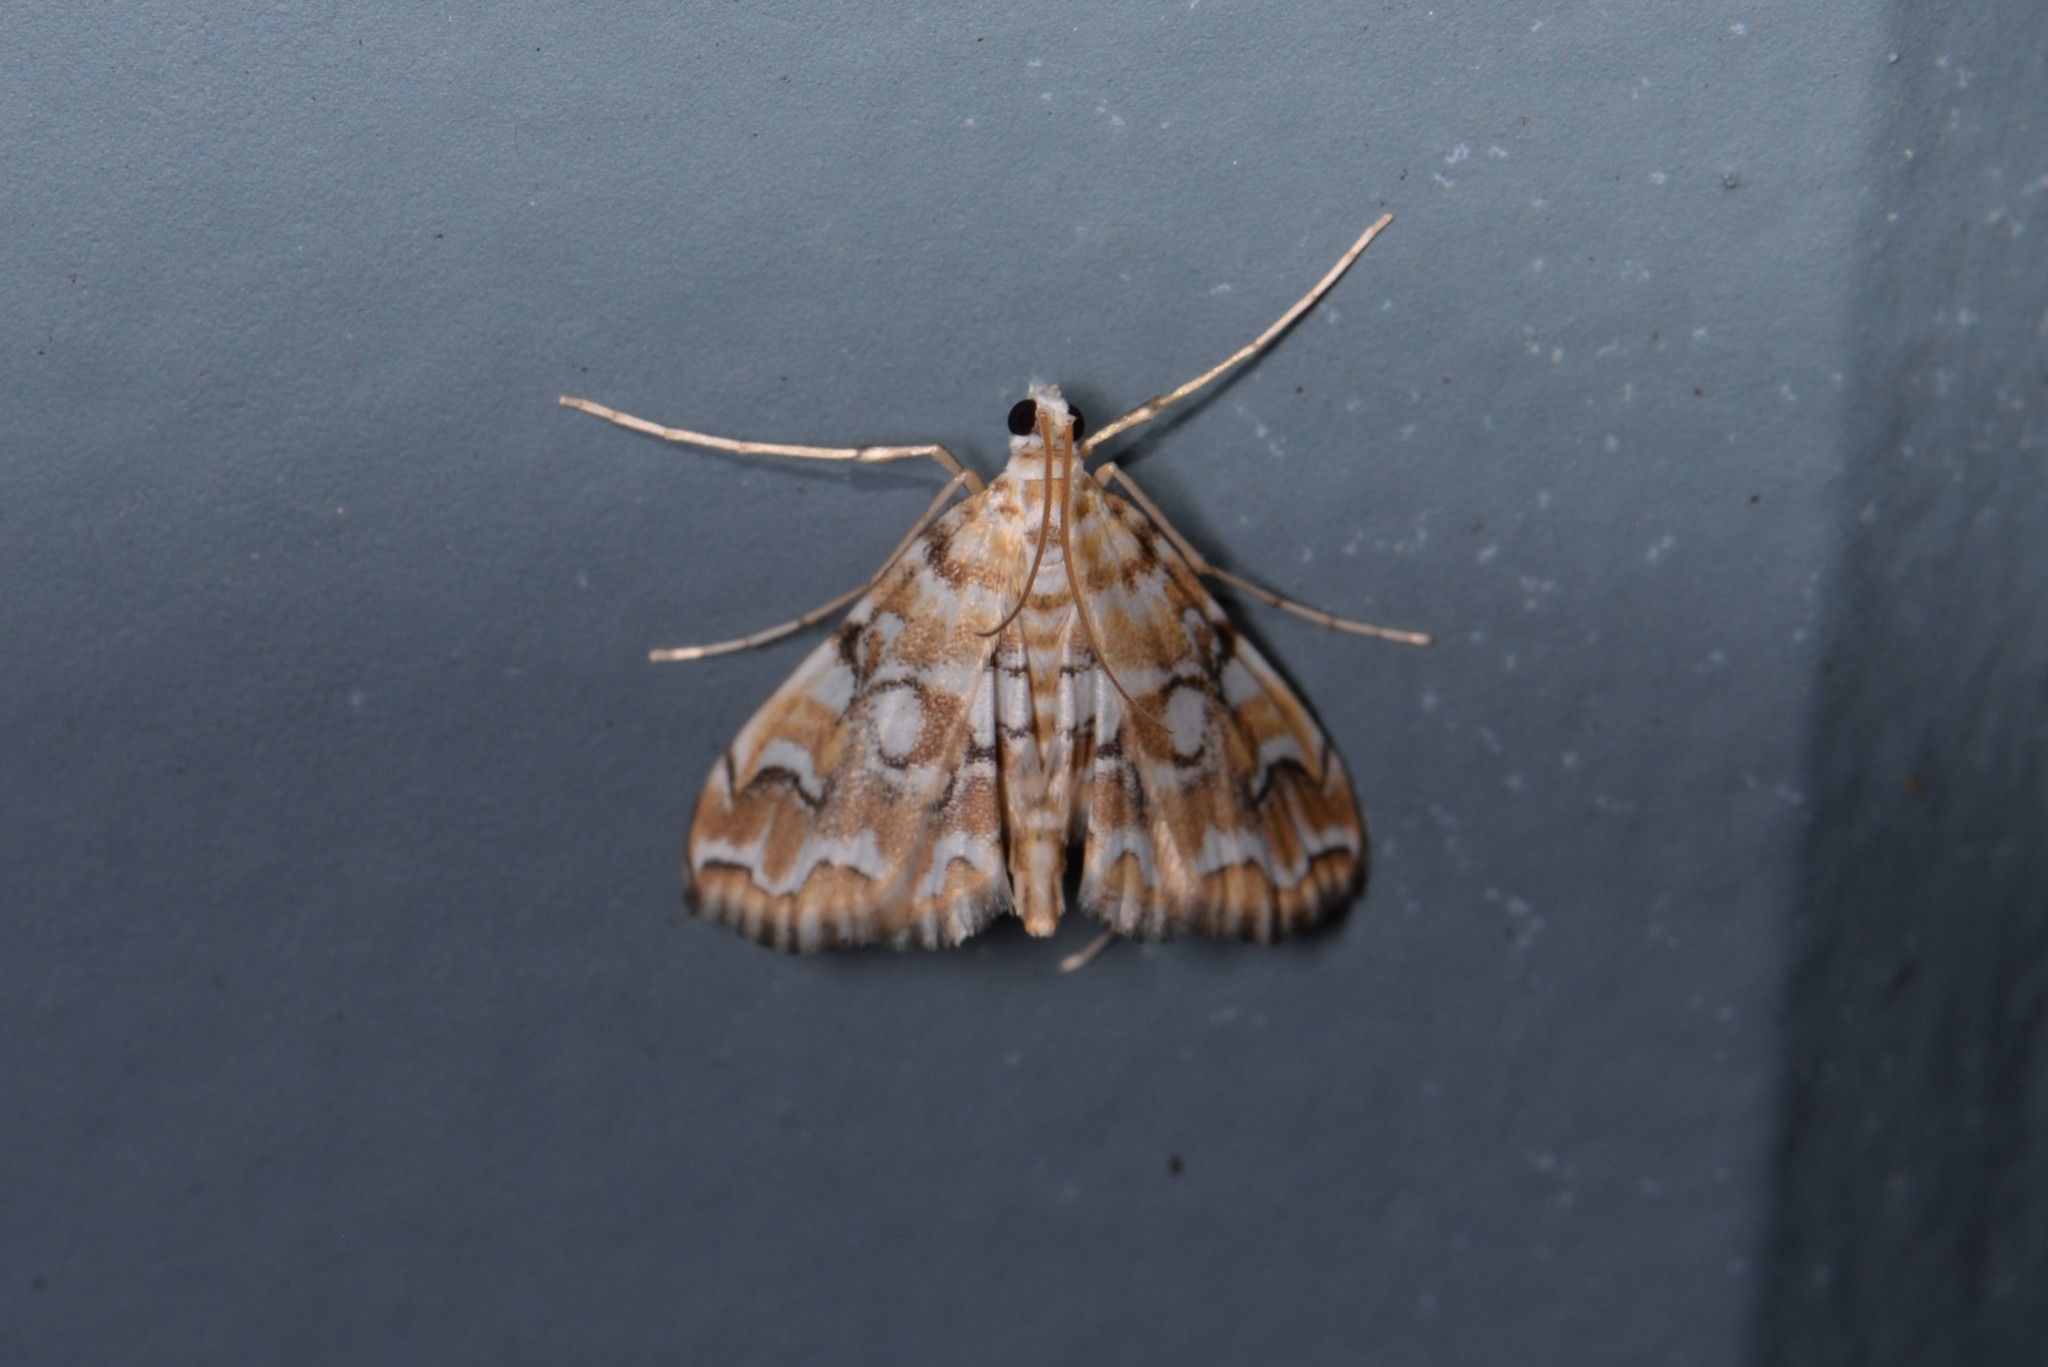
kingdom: Animalia
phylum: Arthropoda
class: Insecta
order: Lepidoptera
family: Crambidae
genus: Elophila
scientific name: Elophila icciusalis
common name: Pondside pyralid moth
